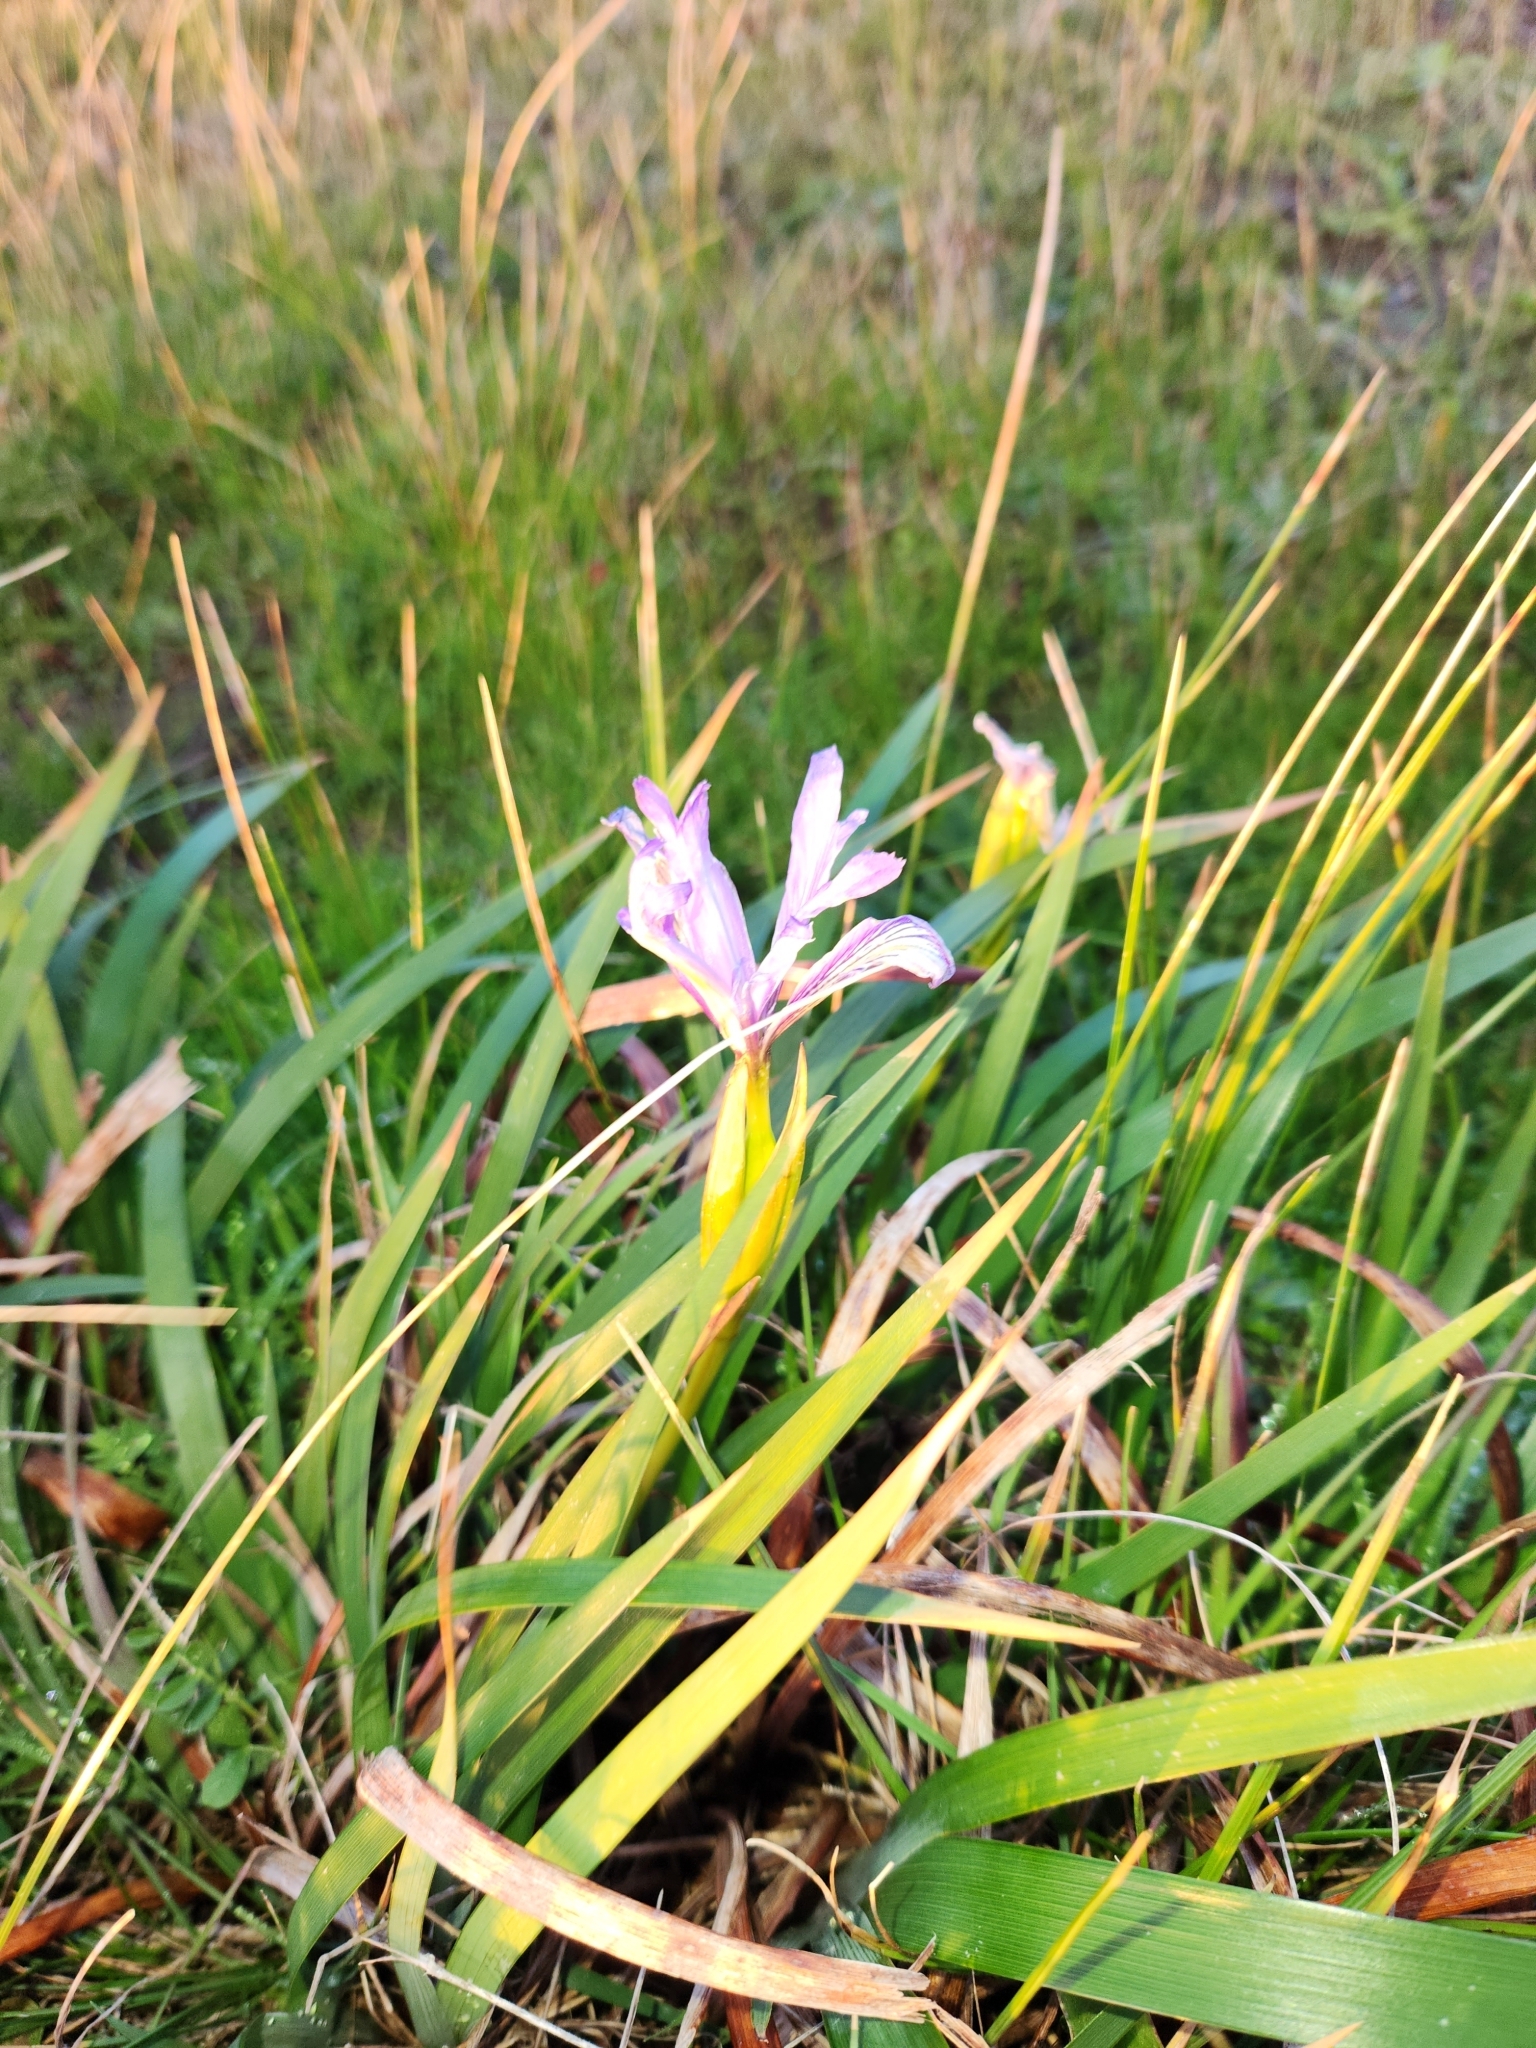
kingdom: Plantae
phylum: Tracheophyta
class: Liliopsida
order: Asparagales
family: Iridaceae
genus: Iris
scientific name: Iris longipetala
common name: Long-petal iris
